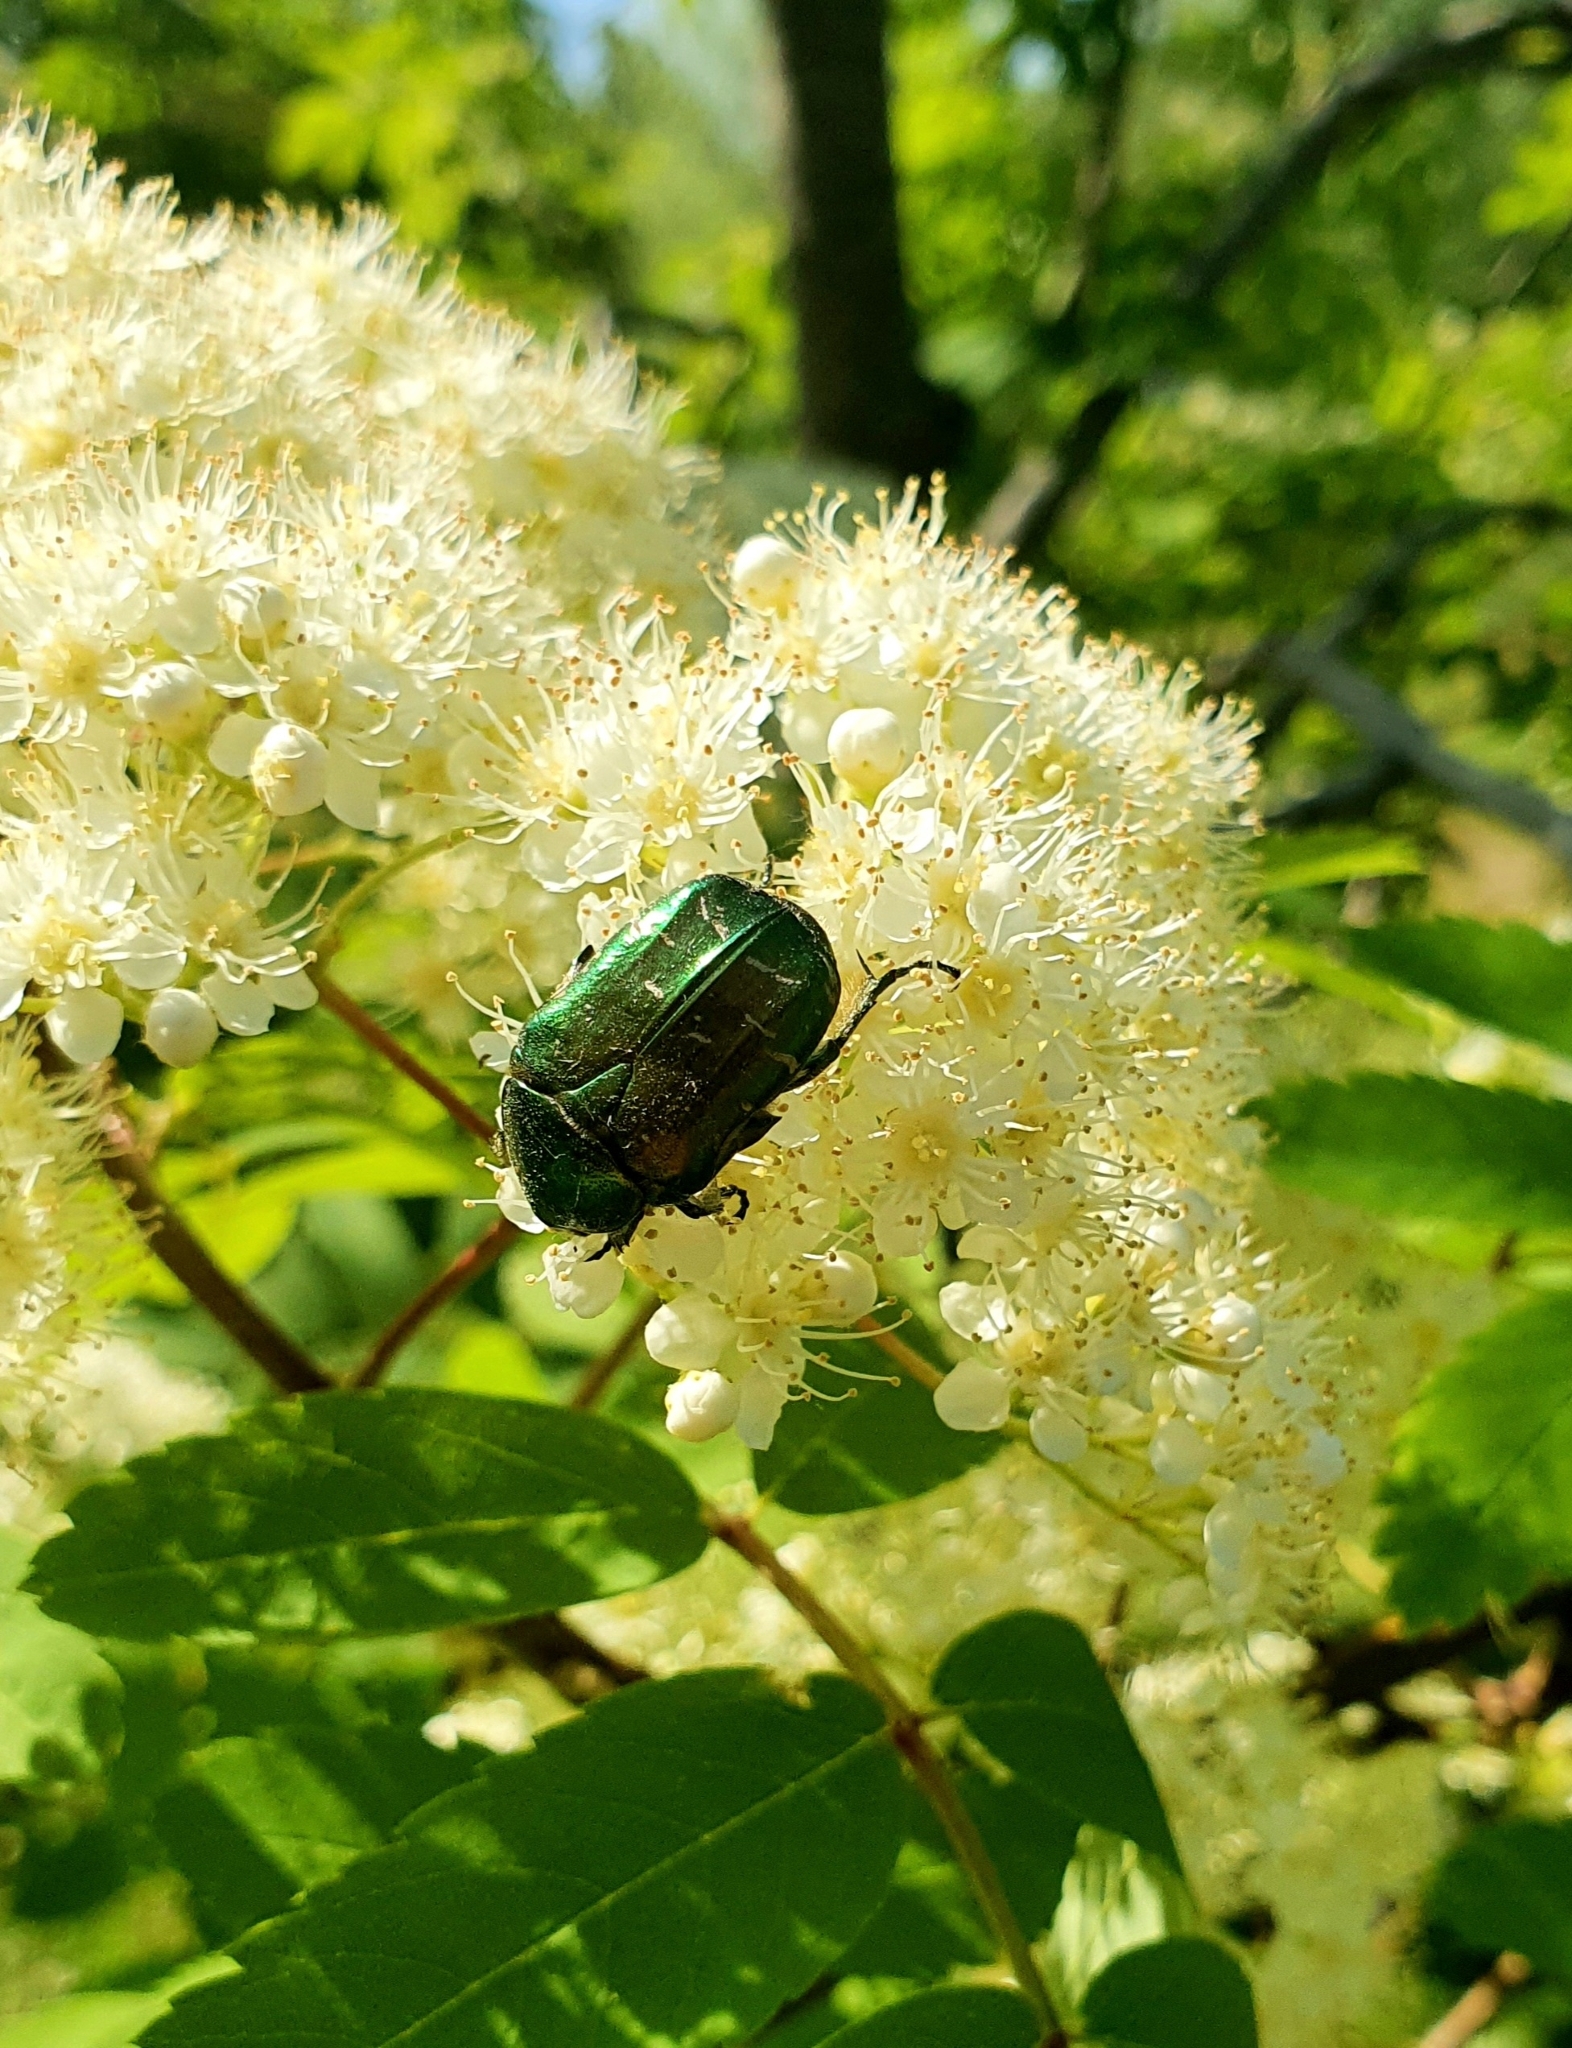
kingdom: Animalia
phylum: Arthropoda
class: Insecta
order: Coleoptera
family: Scarabaeidae
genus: Cetonia
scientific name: Cetonia aurata
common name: Rose chafer
